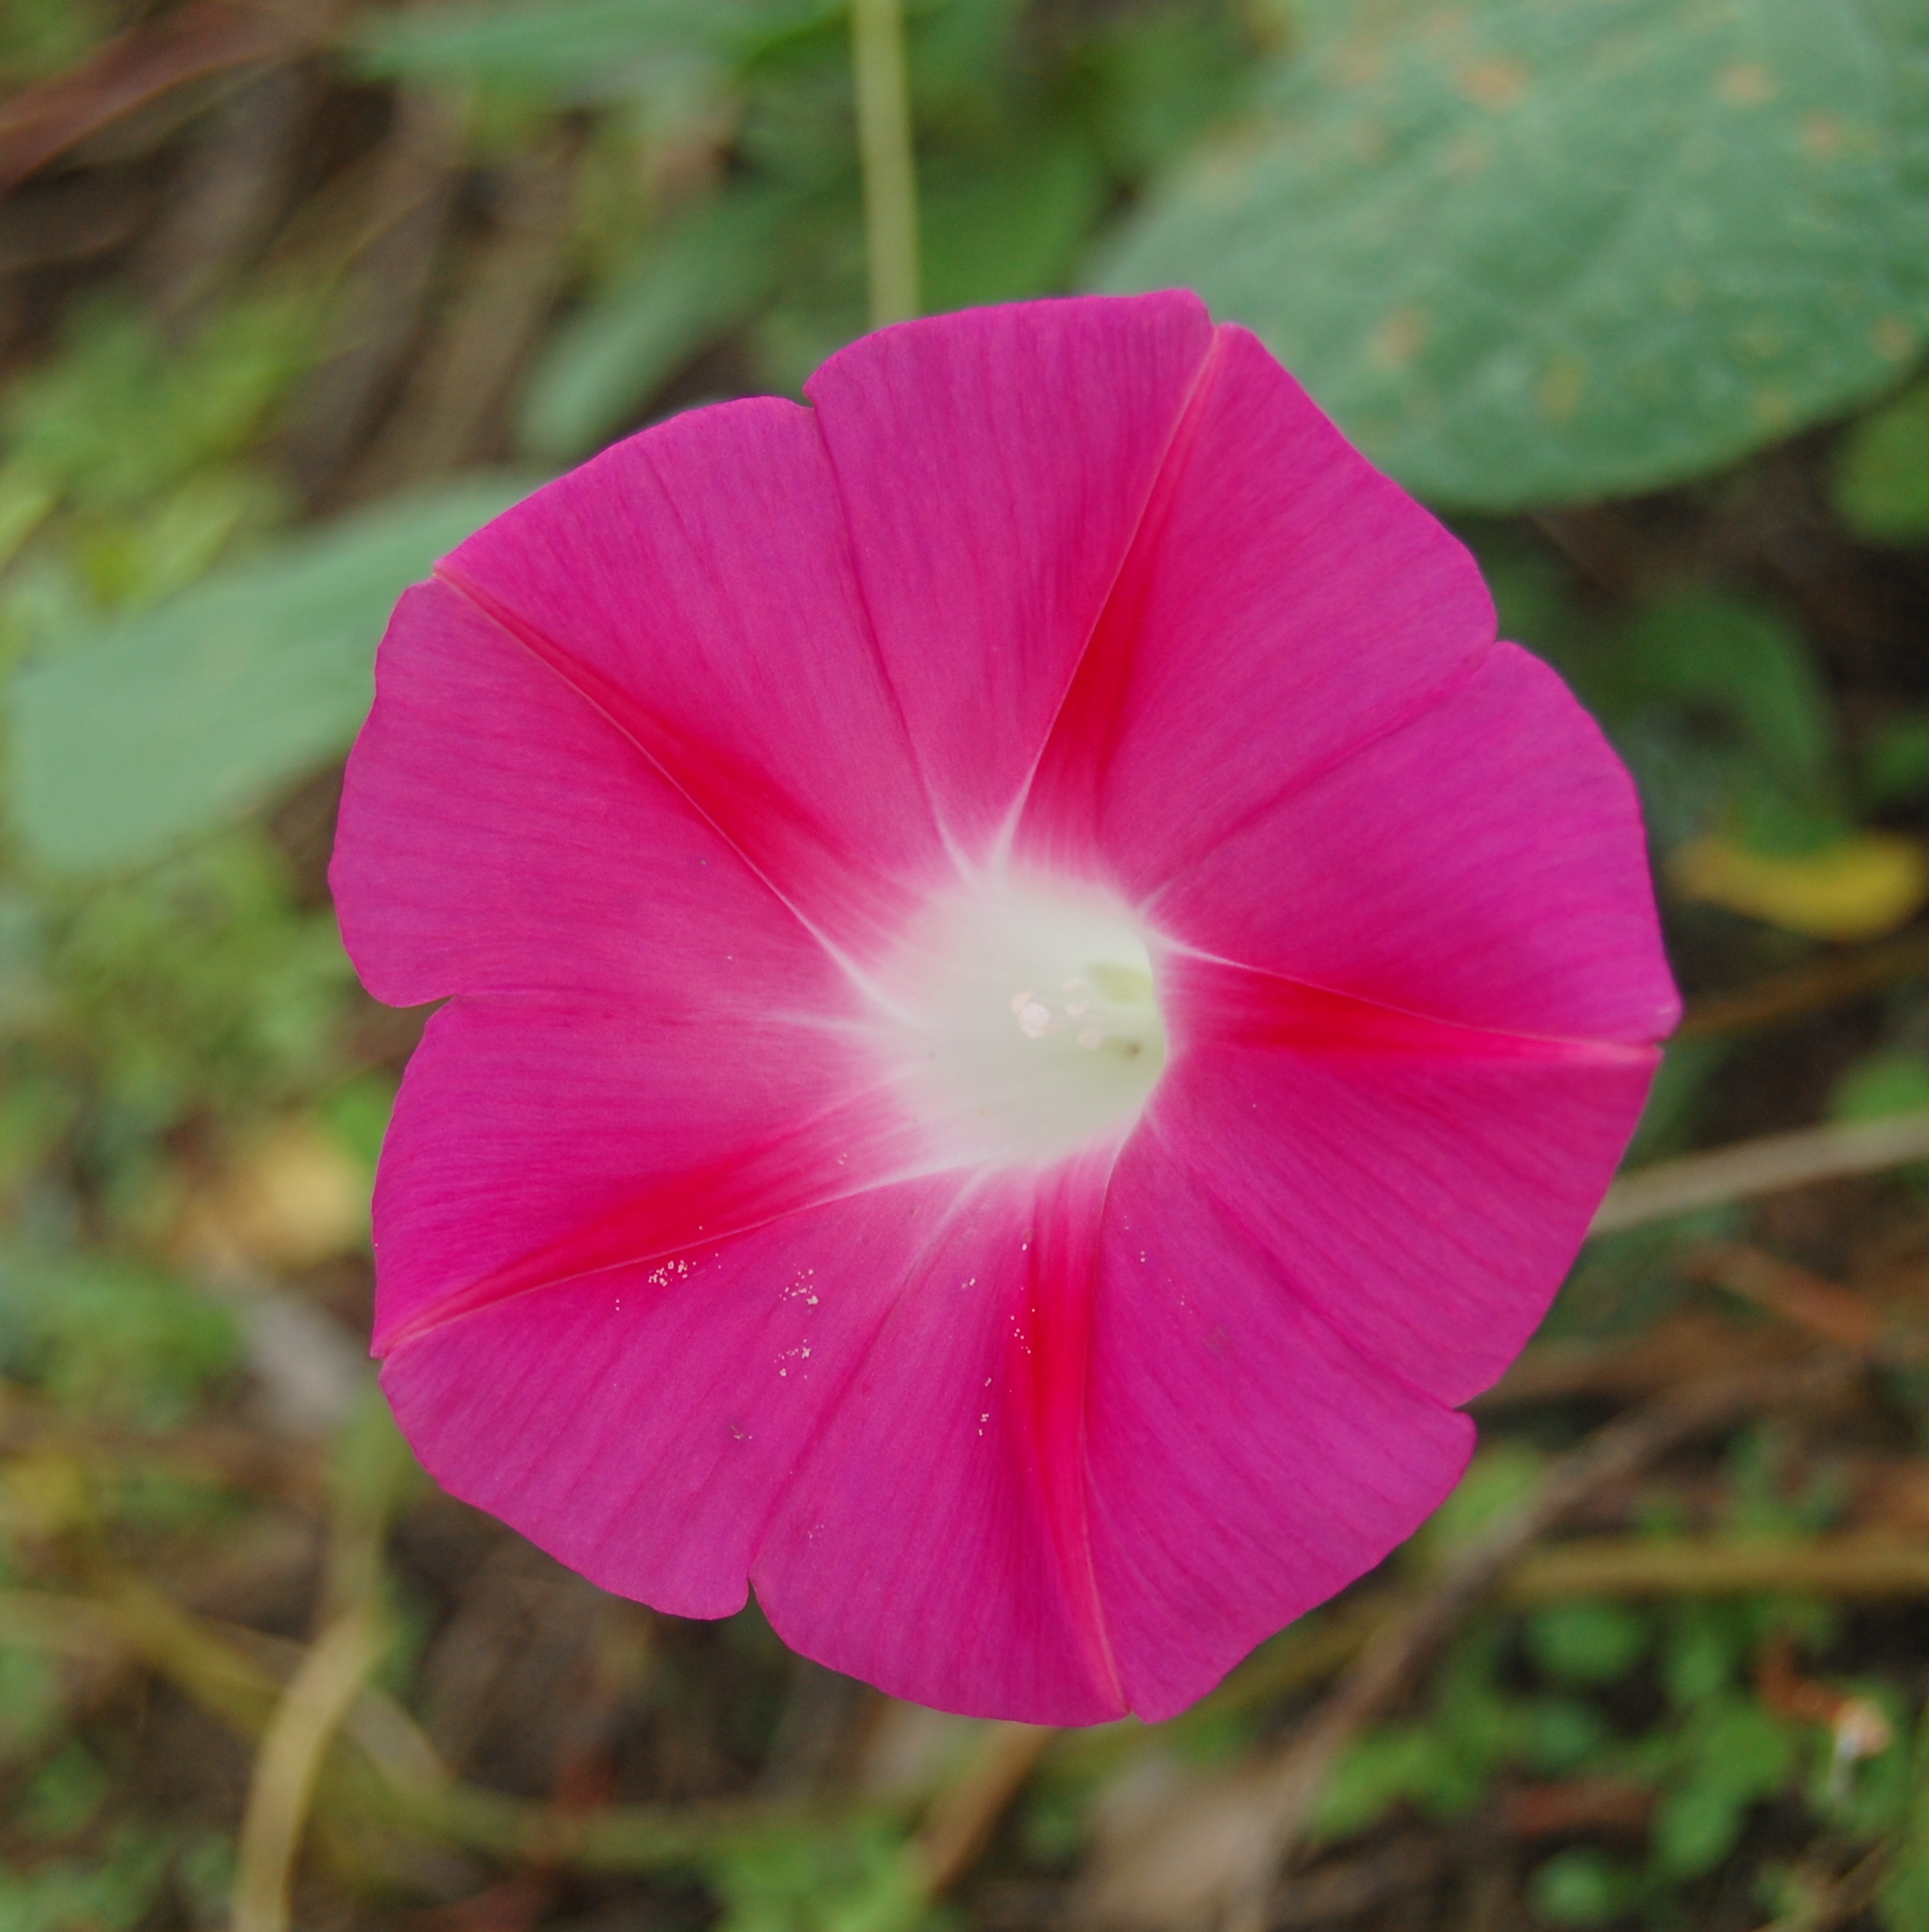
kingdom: Plantae
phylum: Tracheophyta
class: Magnoliopsida
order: Solanales
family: Convolvulaceae
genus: Ipomoea
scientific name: Ipomoea purpurea
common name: Common morning-glory
